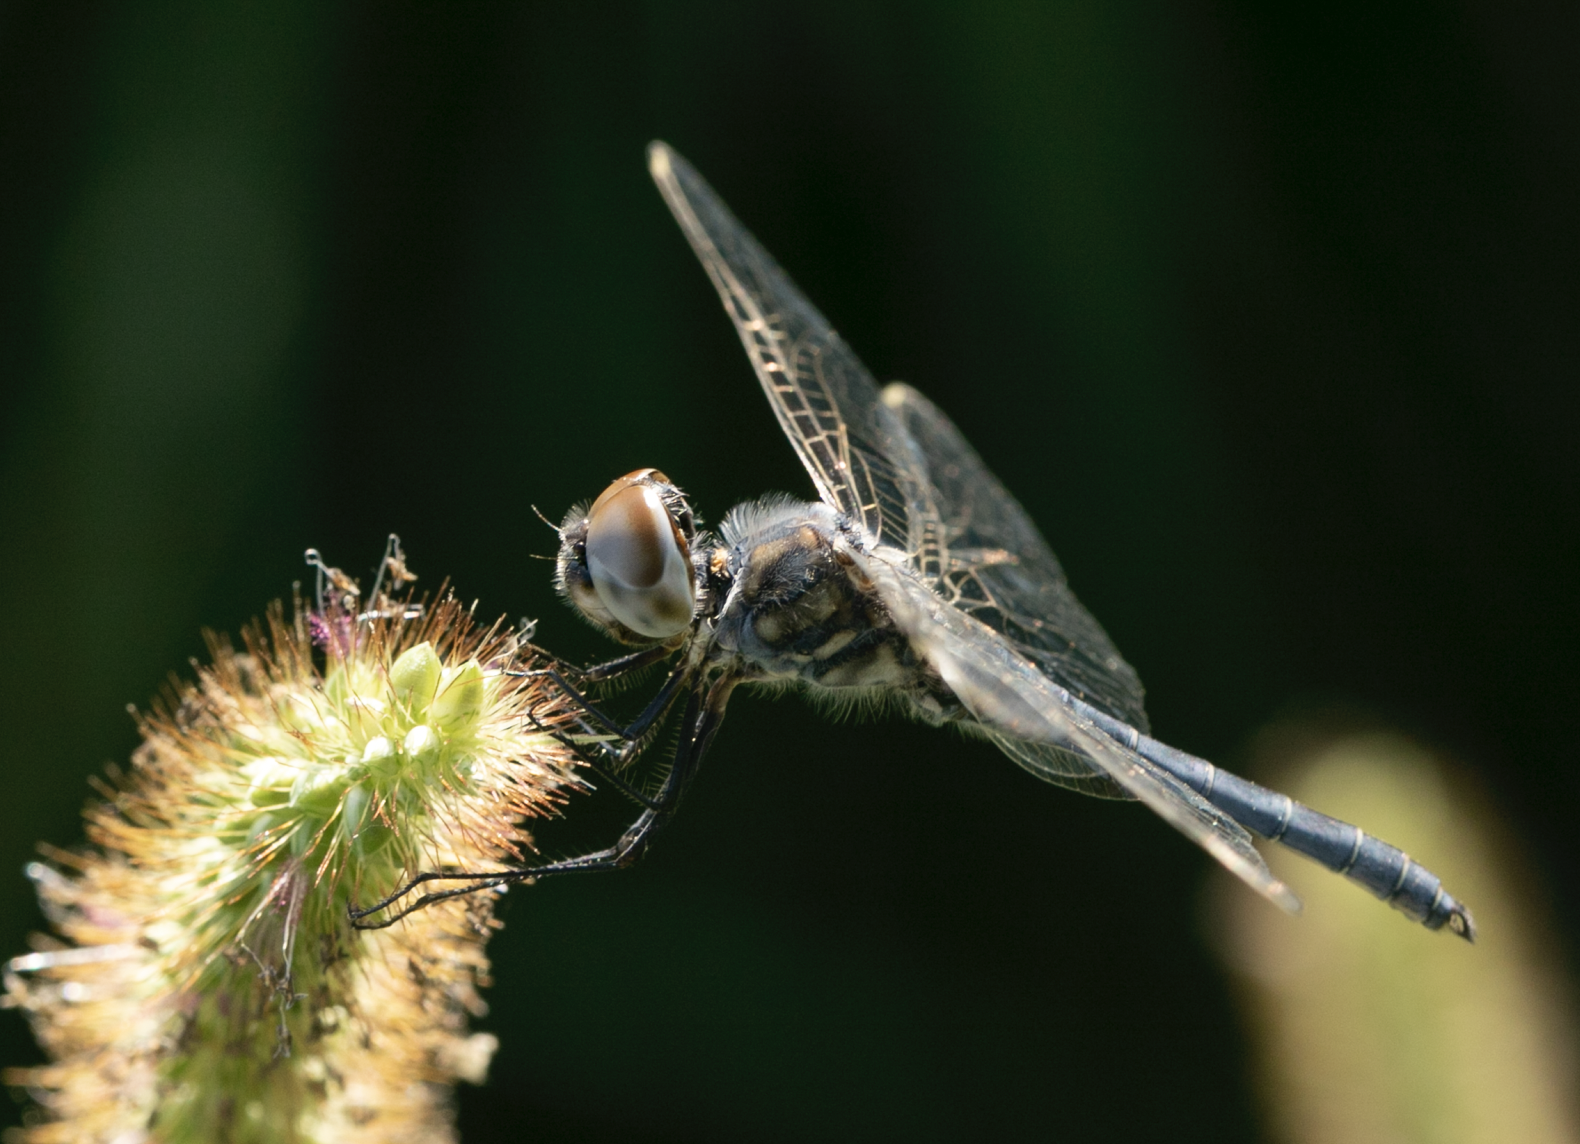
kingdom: Animalia
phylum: Arthropoda
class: Insecta
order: Odonata
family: Libellulidae
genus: Selysiothemis
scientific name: Selysiothemis nigra
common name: Black pennant
